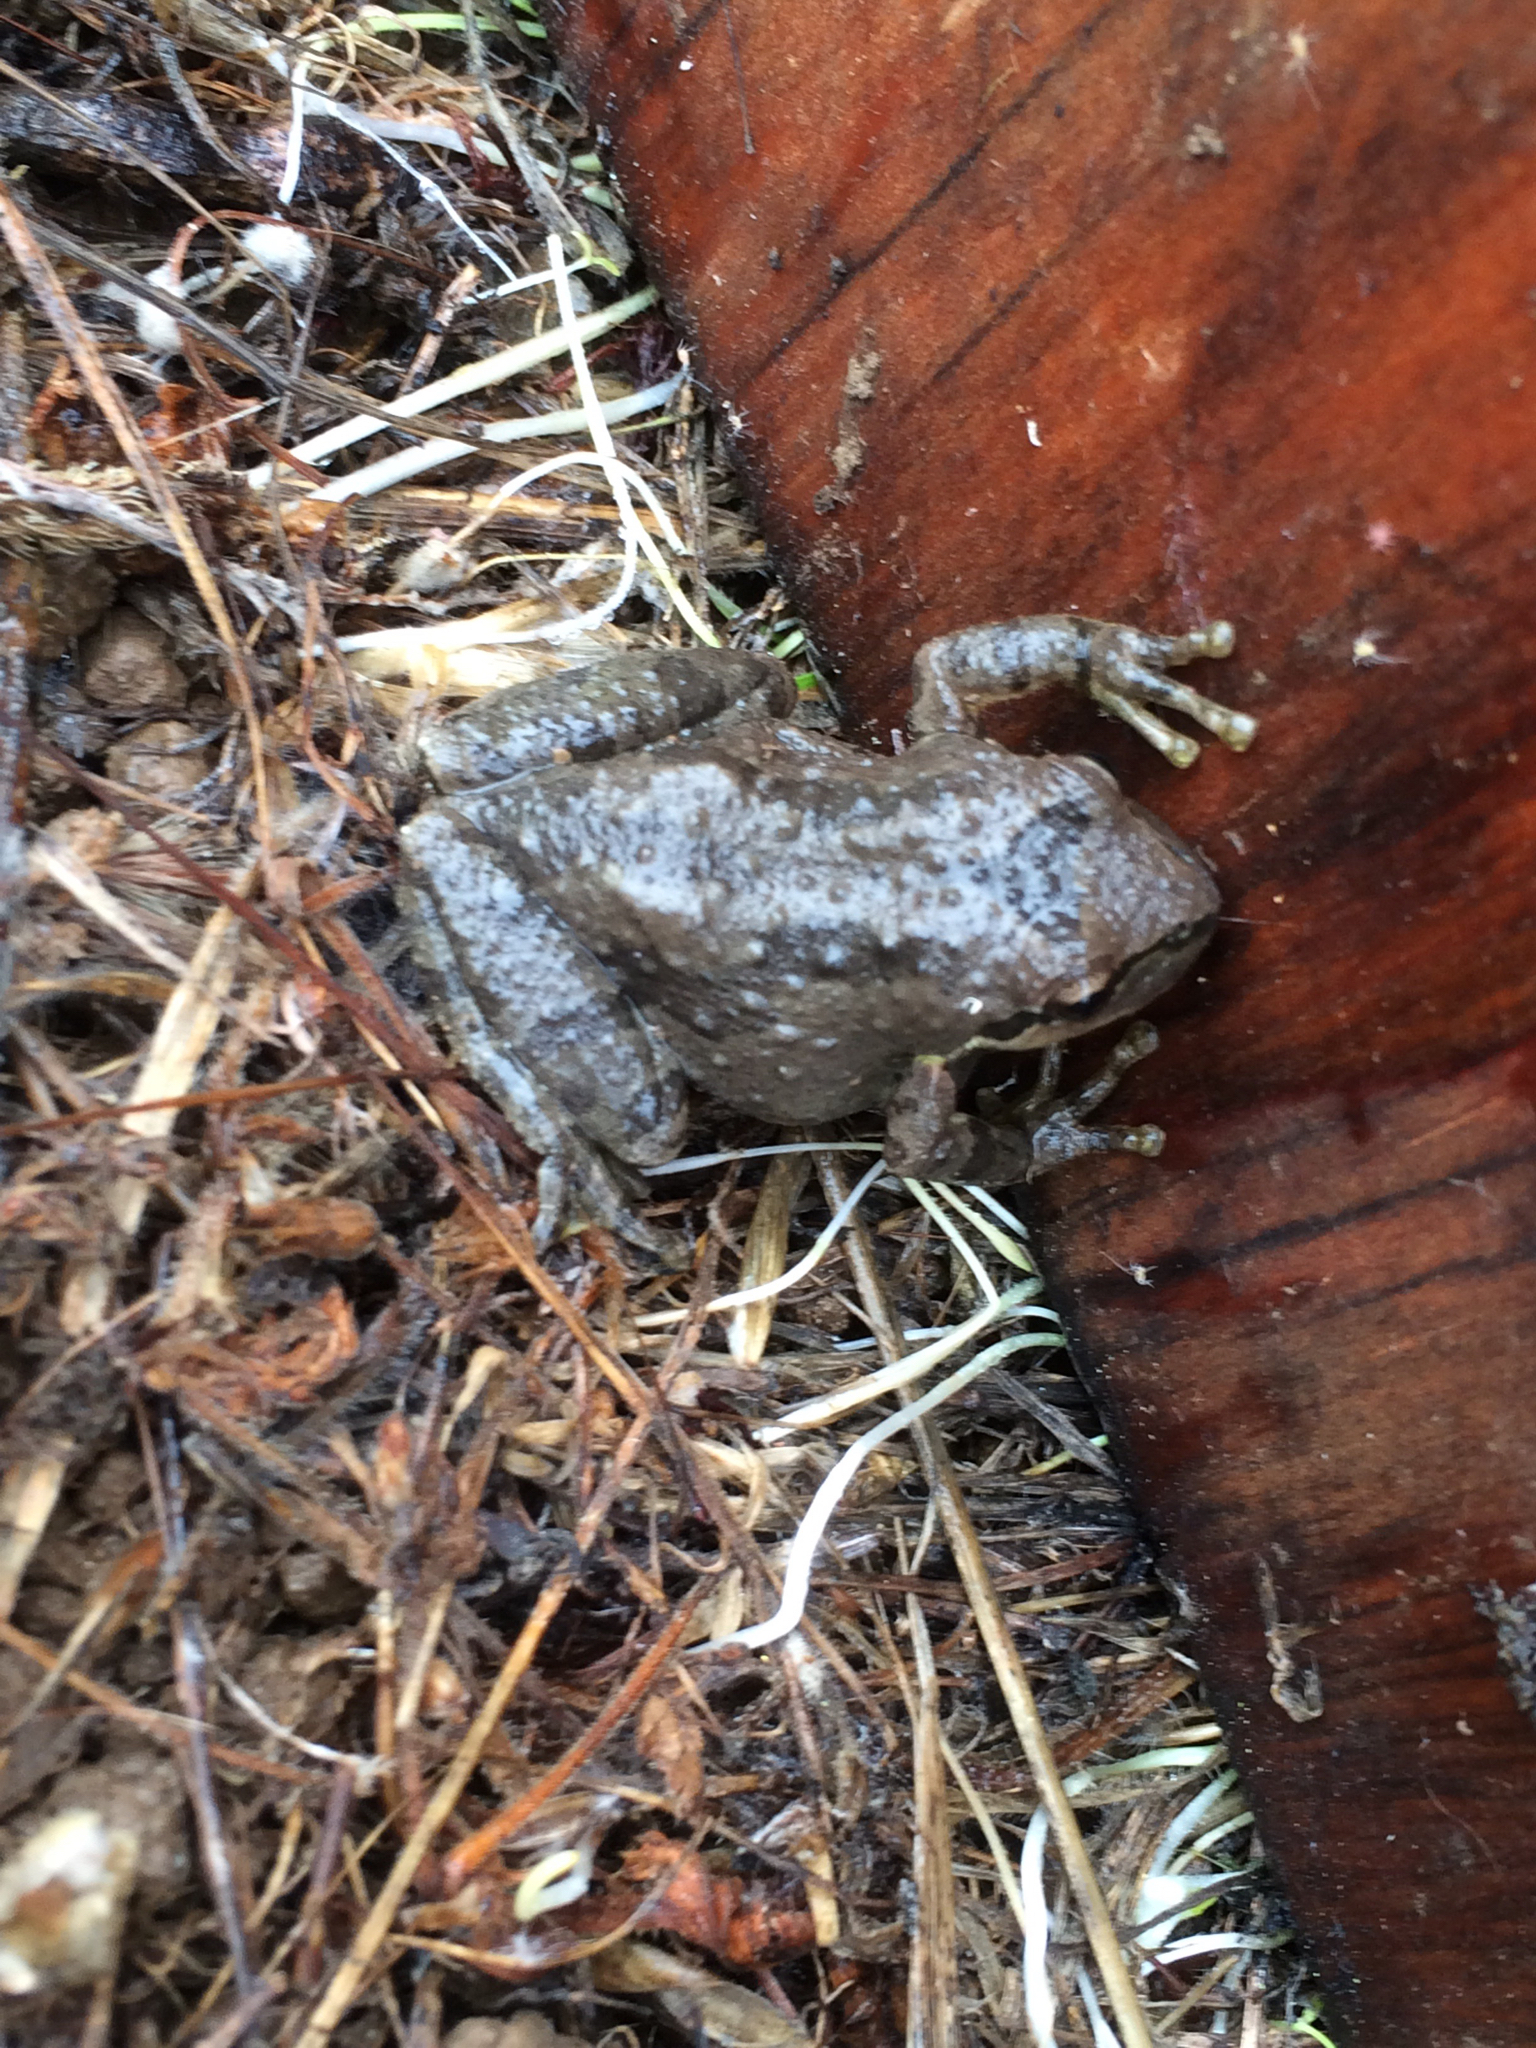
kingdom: Animalia
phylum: Chordata
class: Amphibia
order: Anura
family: Hylidae
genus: Pseudacris
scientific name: Pseudacris regilla
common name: Pacific chorus frog
